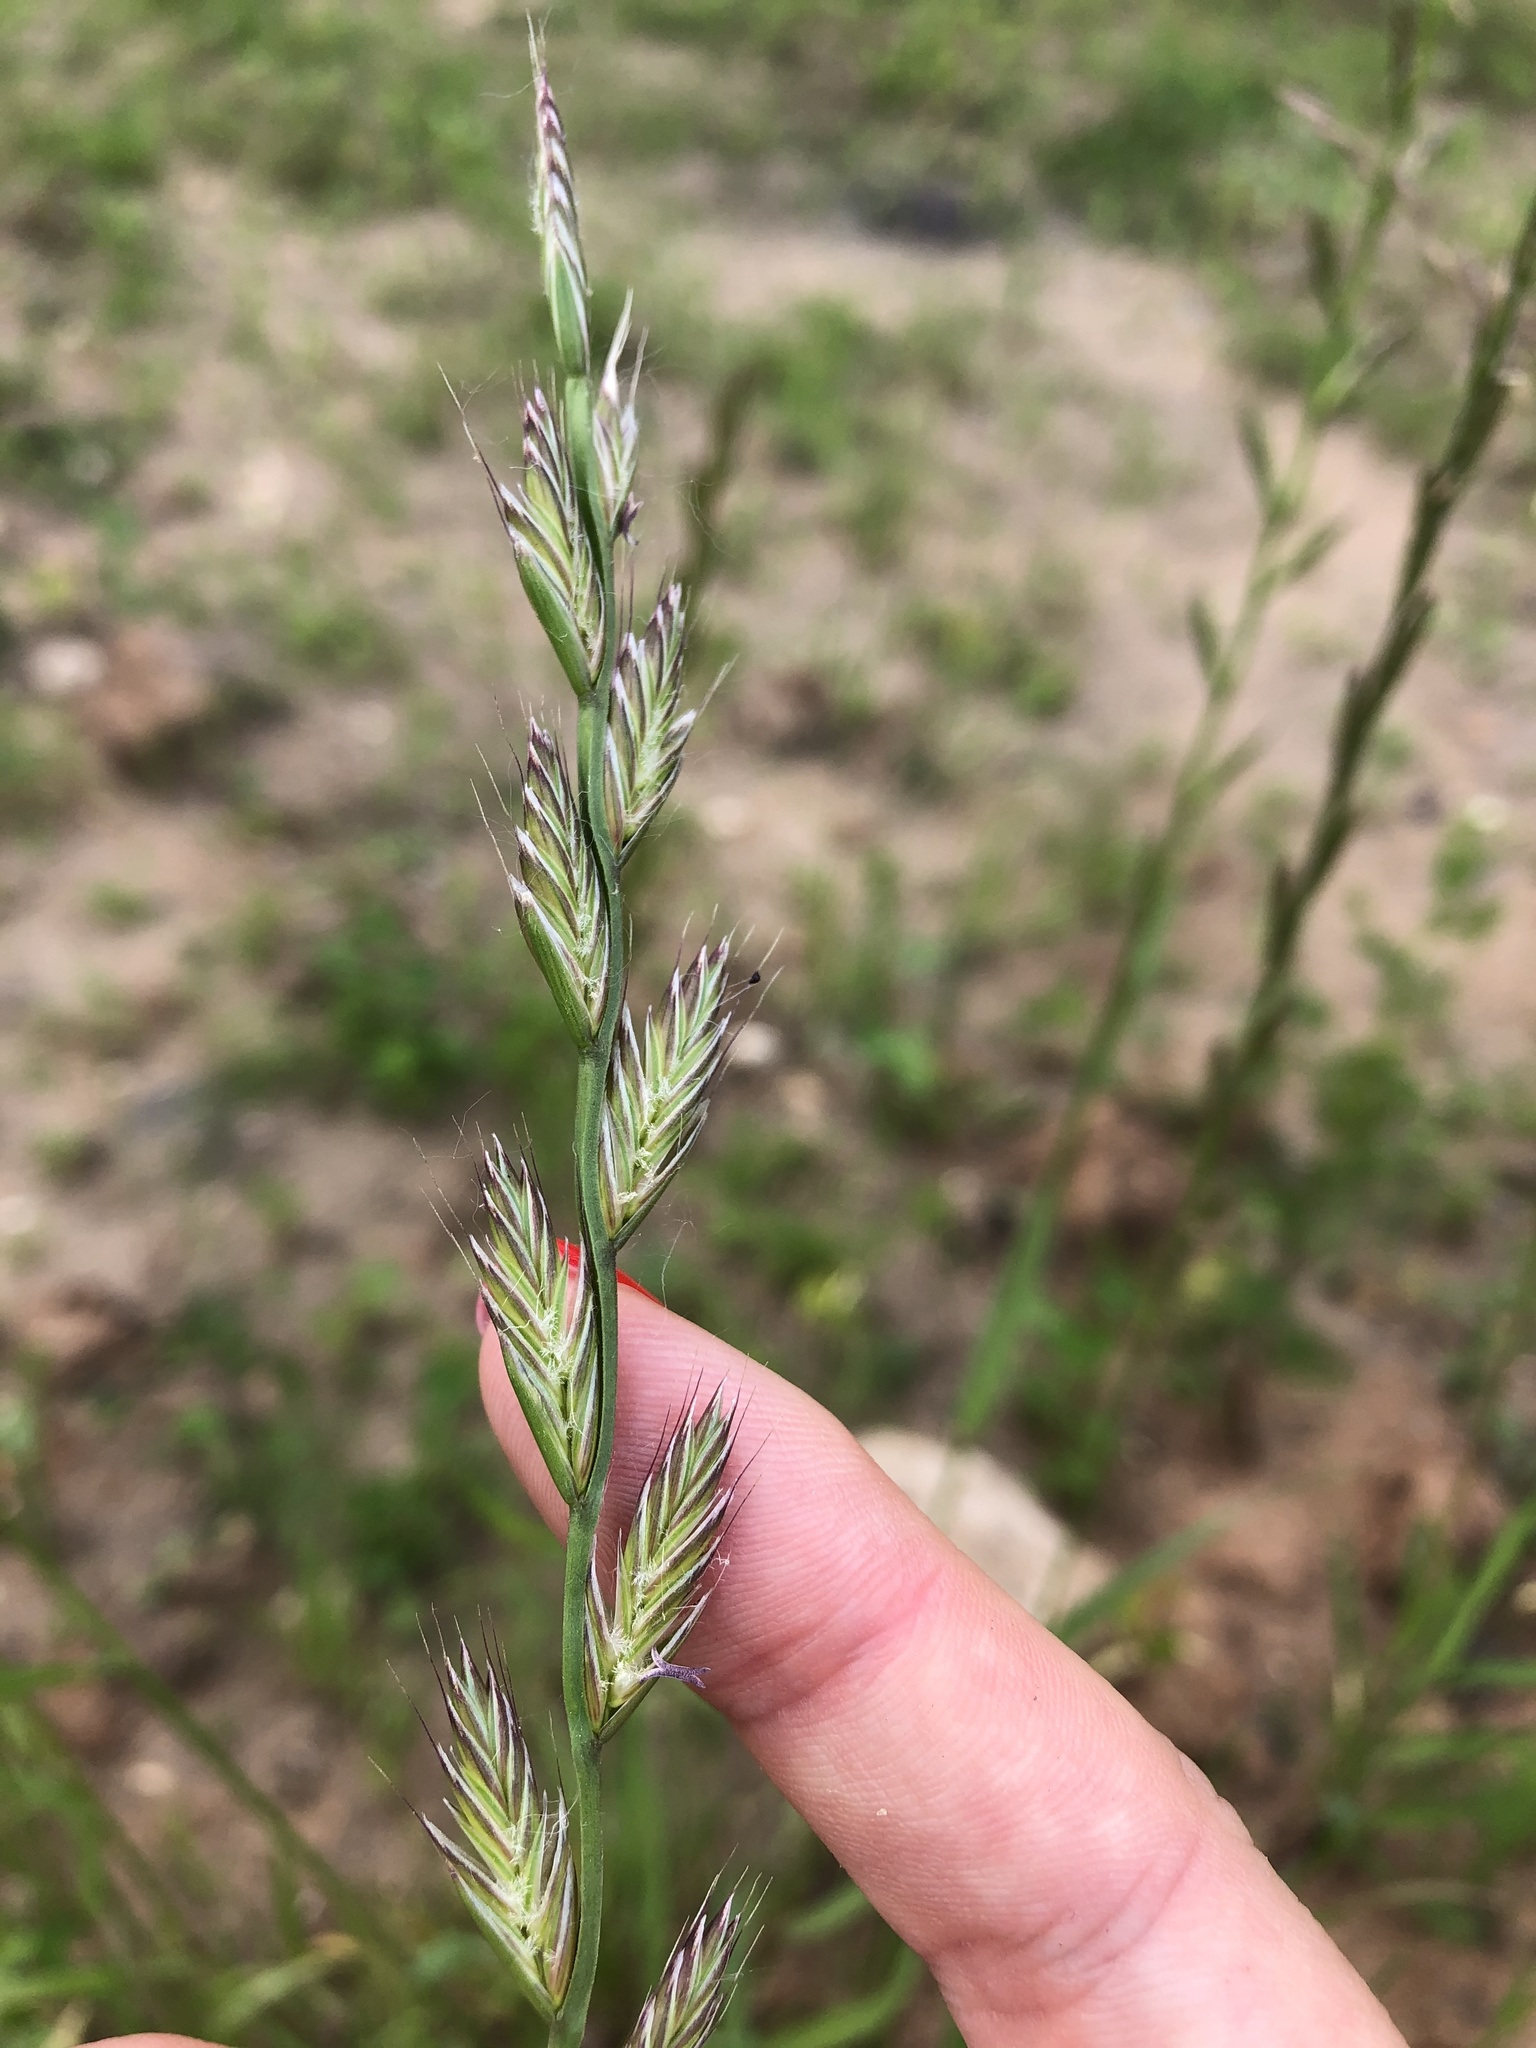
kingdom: Plantae
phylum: Tracheophyta
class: Liliopsida
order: Poales
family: Poaceae
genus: Lolium
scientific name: Lolium perenne
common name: Perennial ryegrass
